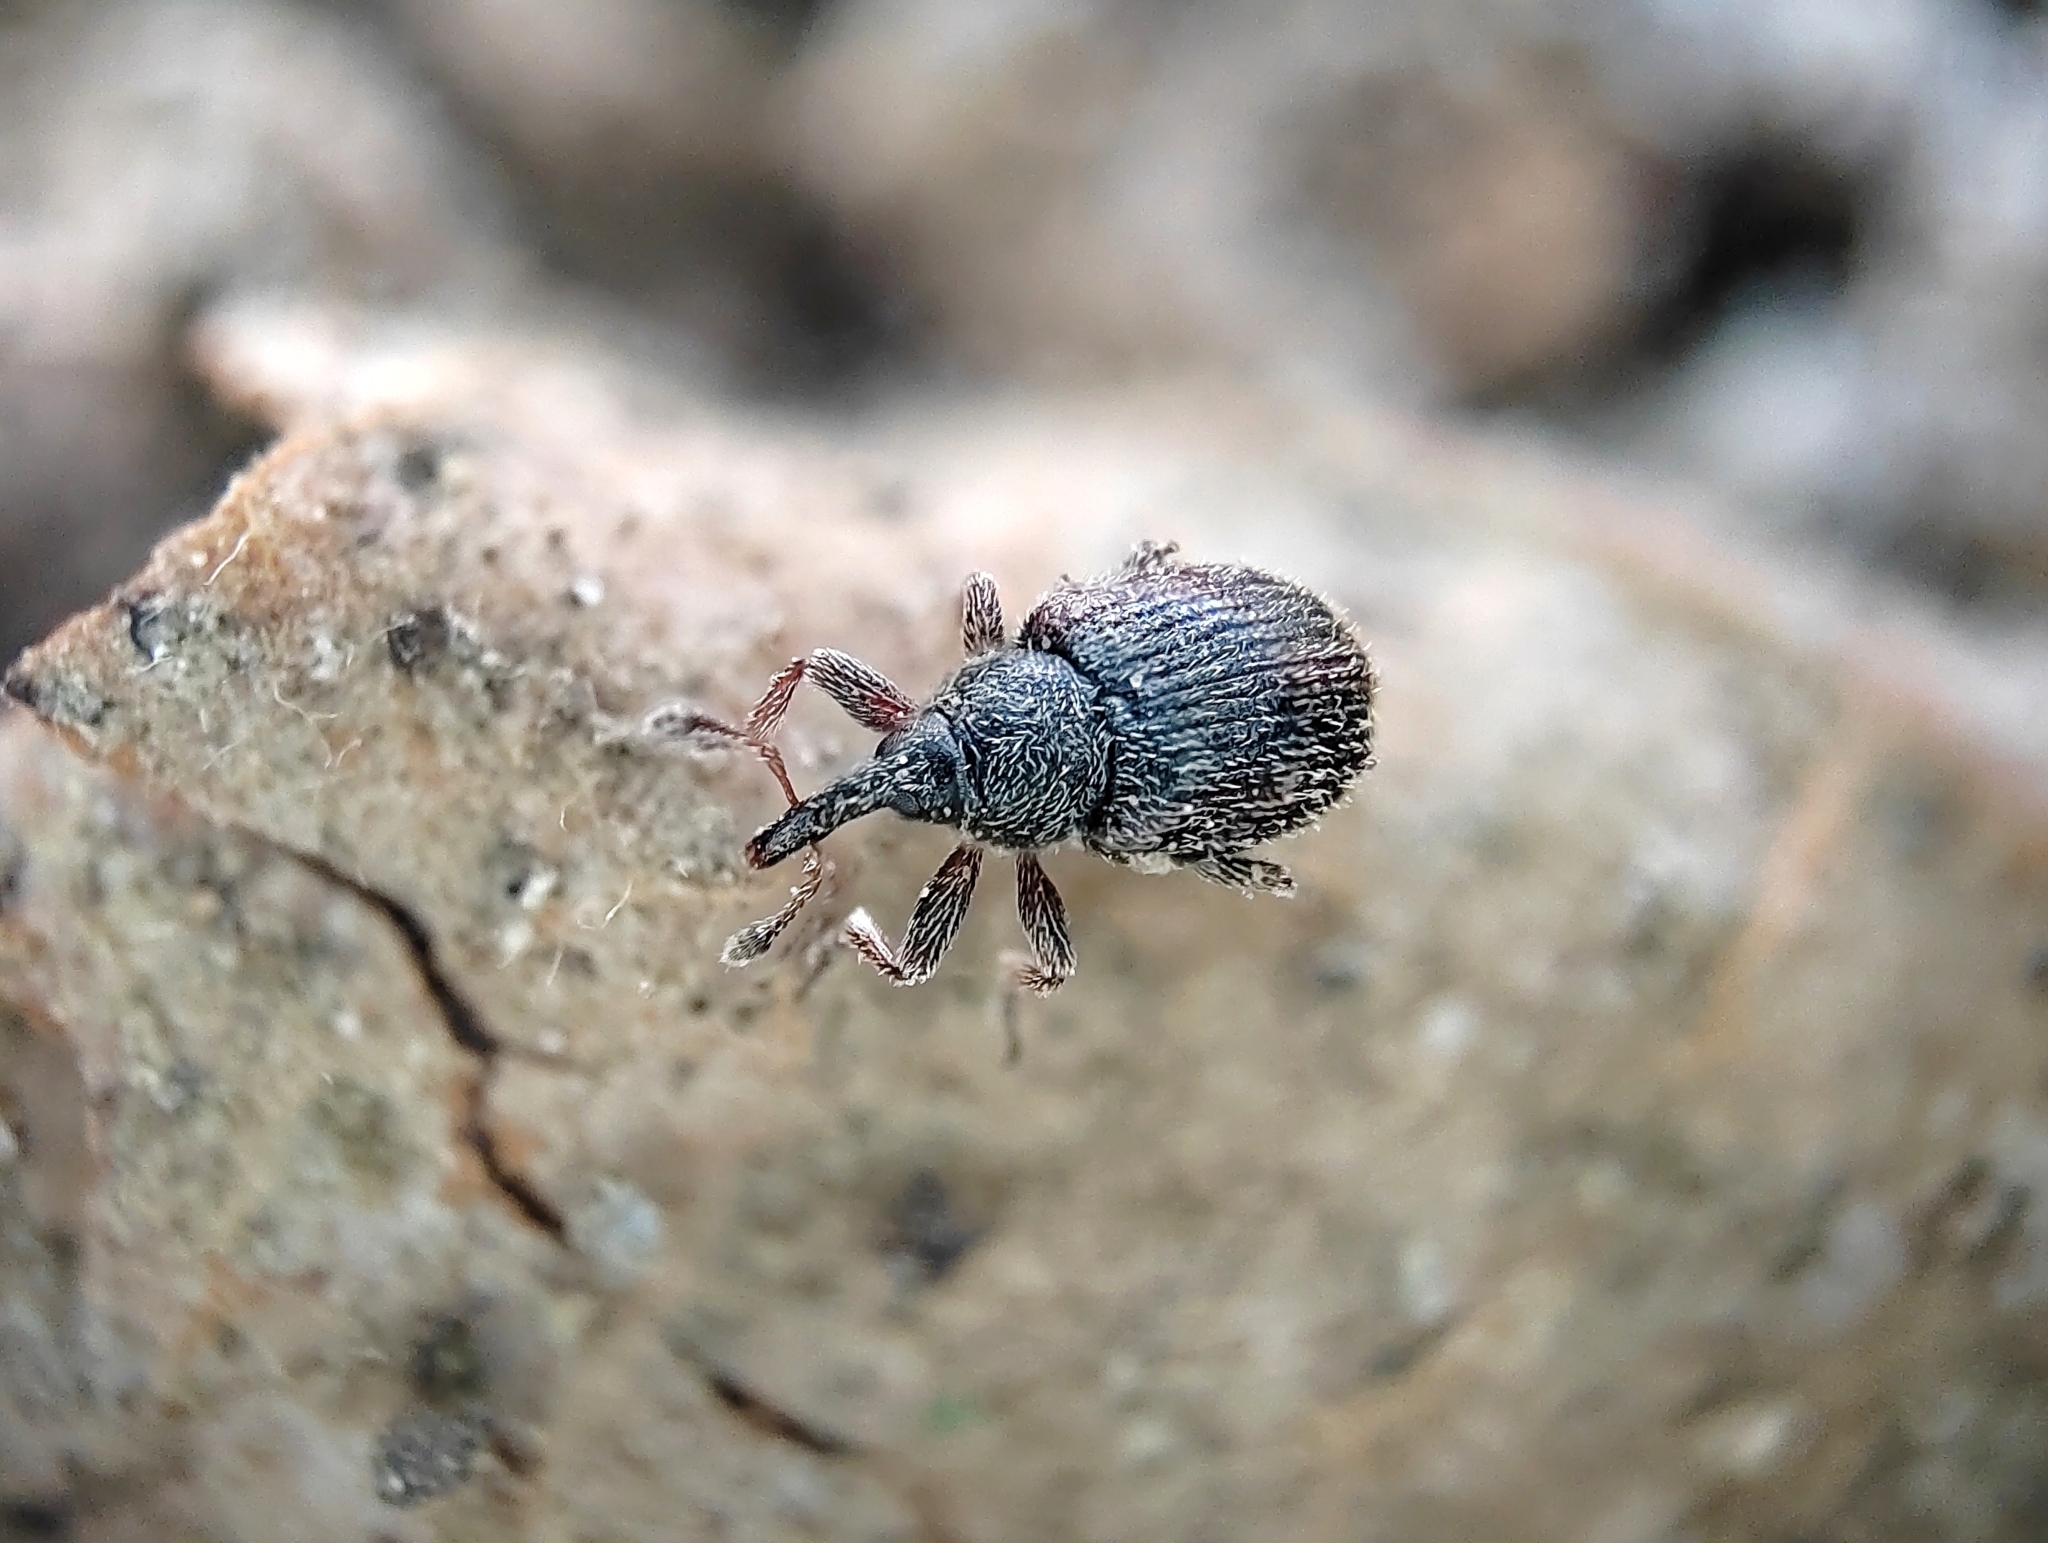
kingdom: Animalia
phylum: Arthropoda
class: Insecta
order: Coleoptera
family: Curculionidae
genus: Gymnetron
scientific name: Gymnetron
